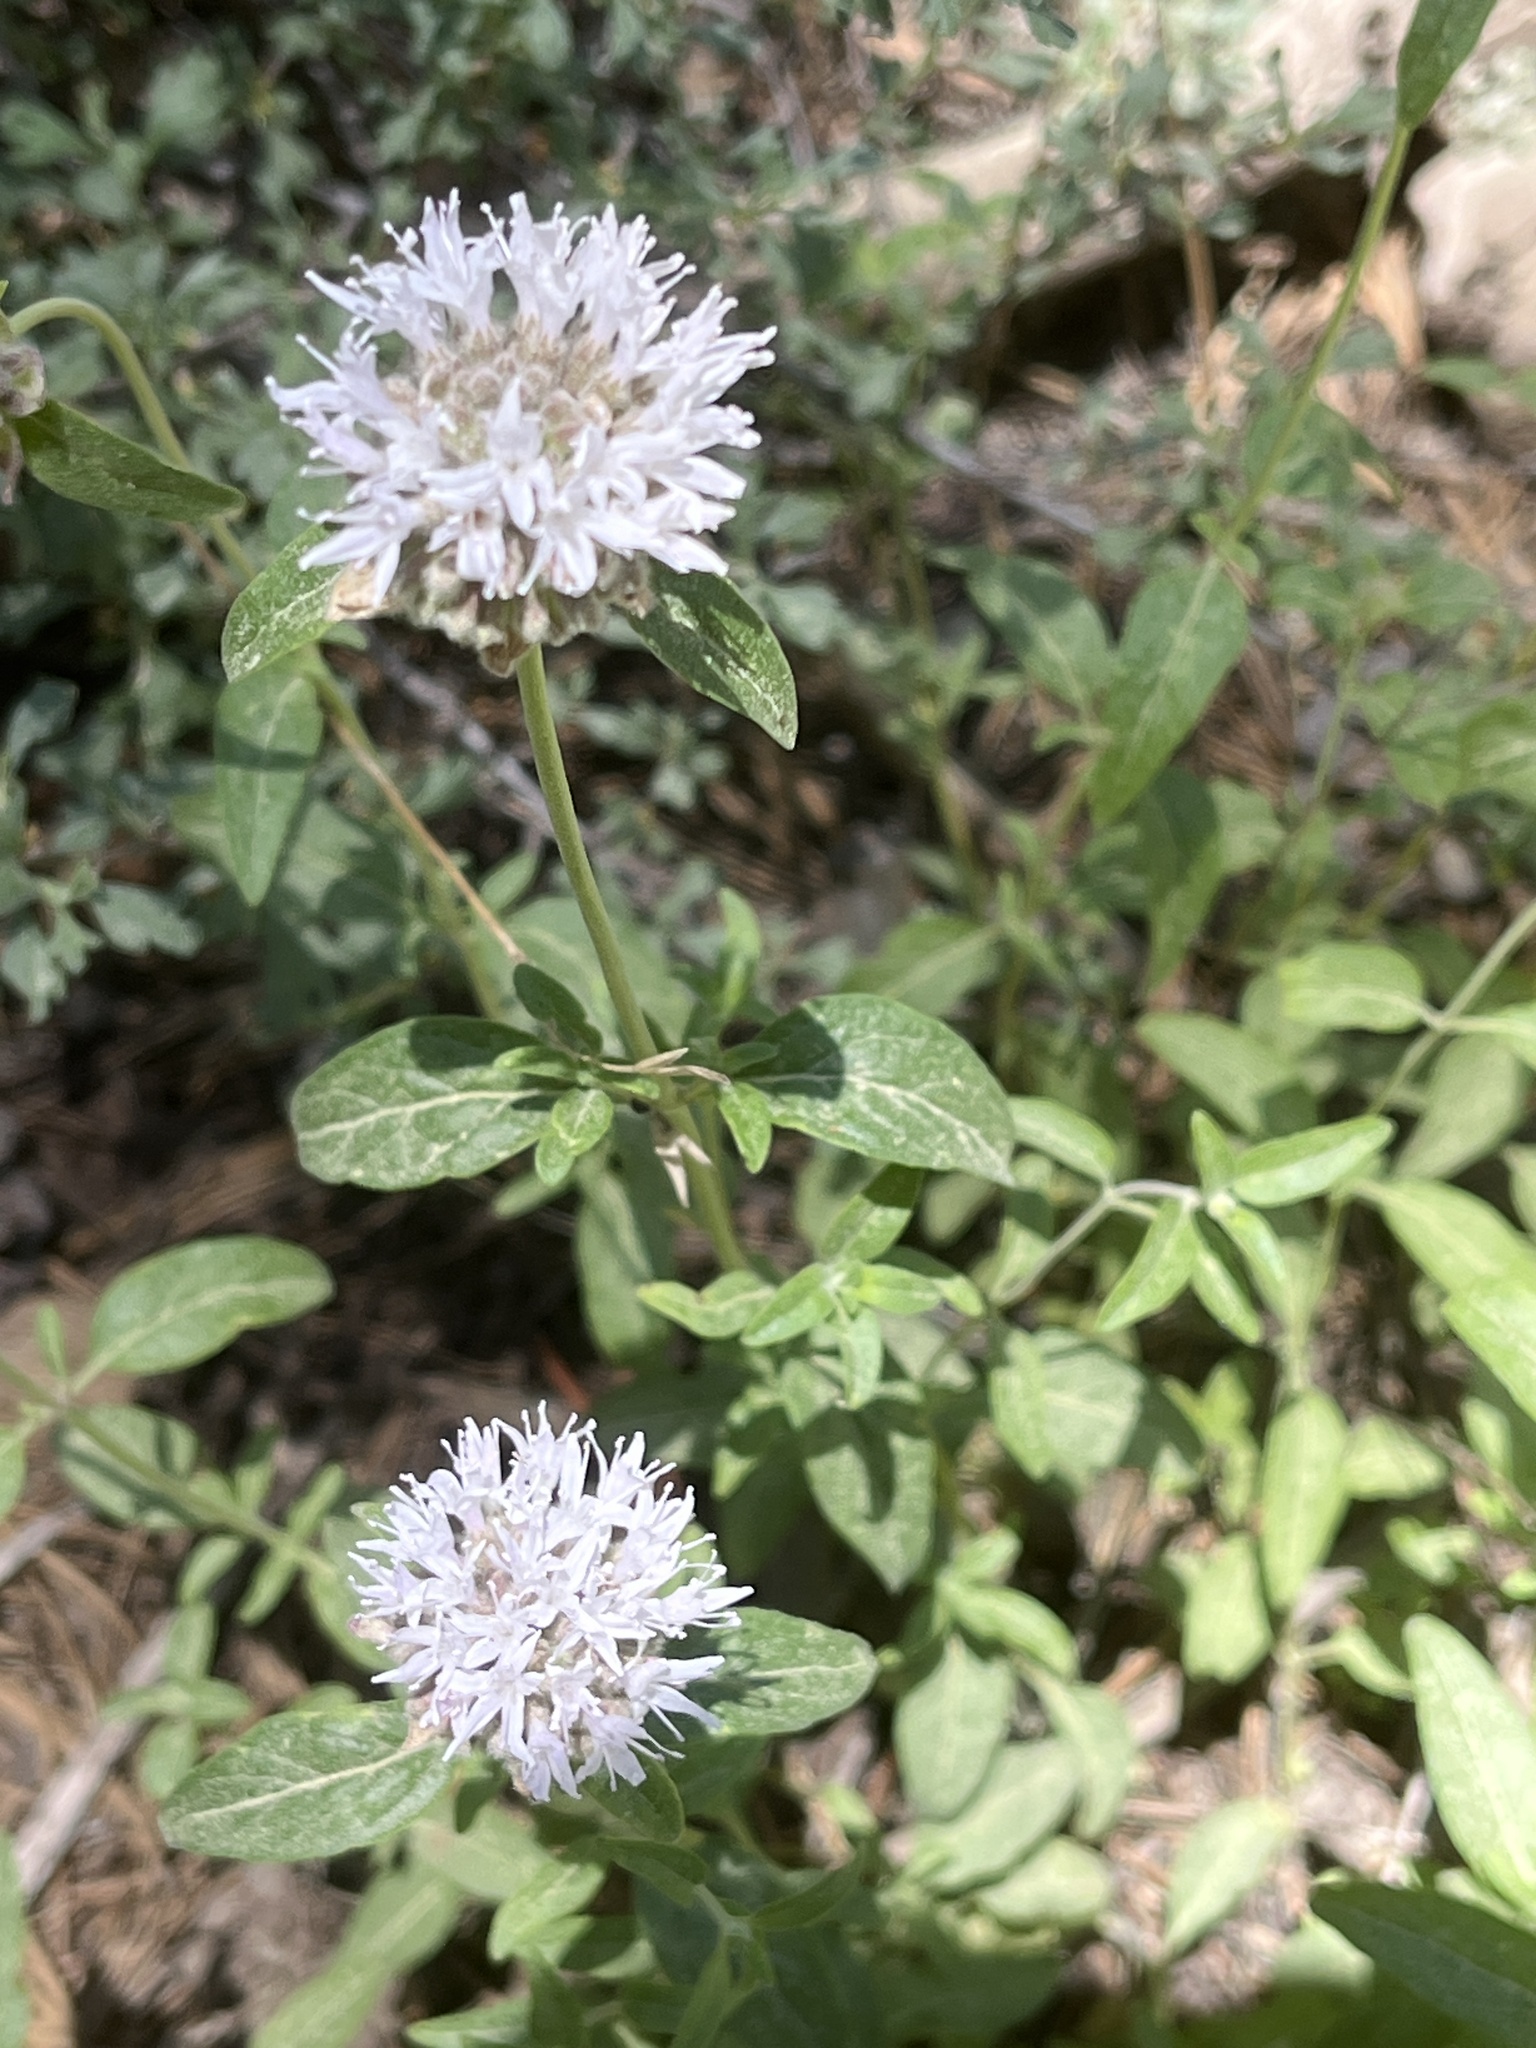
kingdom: Plantae
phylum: Tracheophyta
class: Magnoliopsida
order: Lamiales
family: Lamiaceae
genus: Monardella
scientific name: Monardella odoratissima
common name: Pacific monardella
